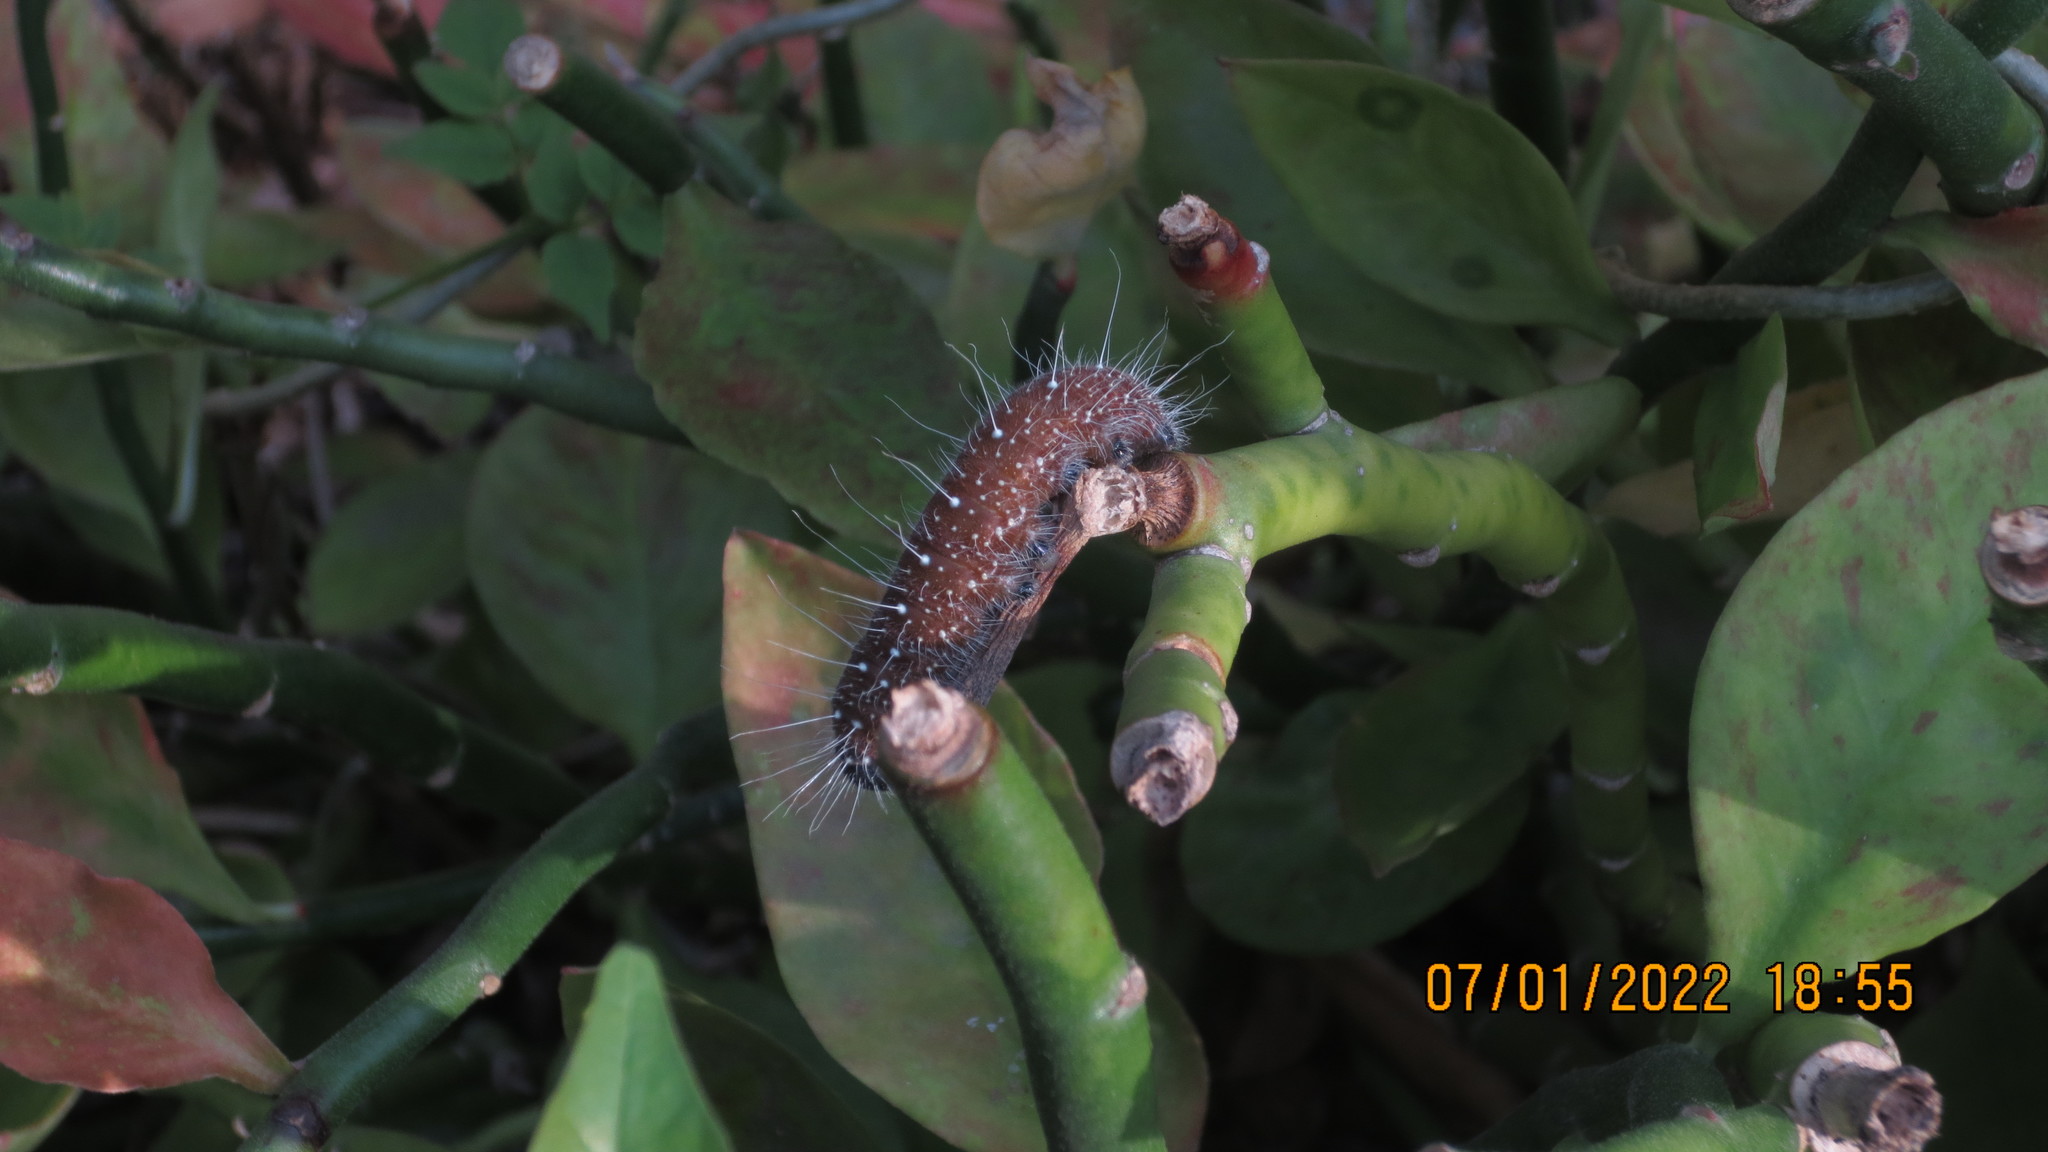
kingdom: Animalia
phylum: Arthropoda
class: Insecta
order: Lepidoptera
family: Pieridae
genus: Delias
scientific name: Delias eucharis
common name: Common jezebel
